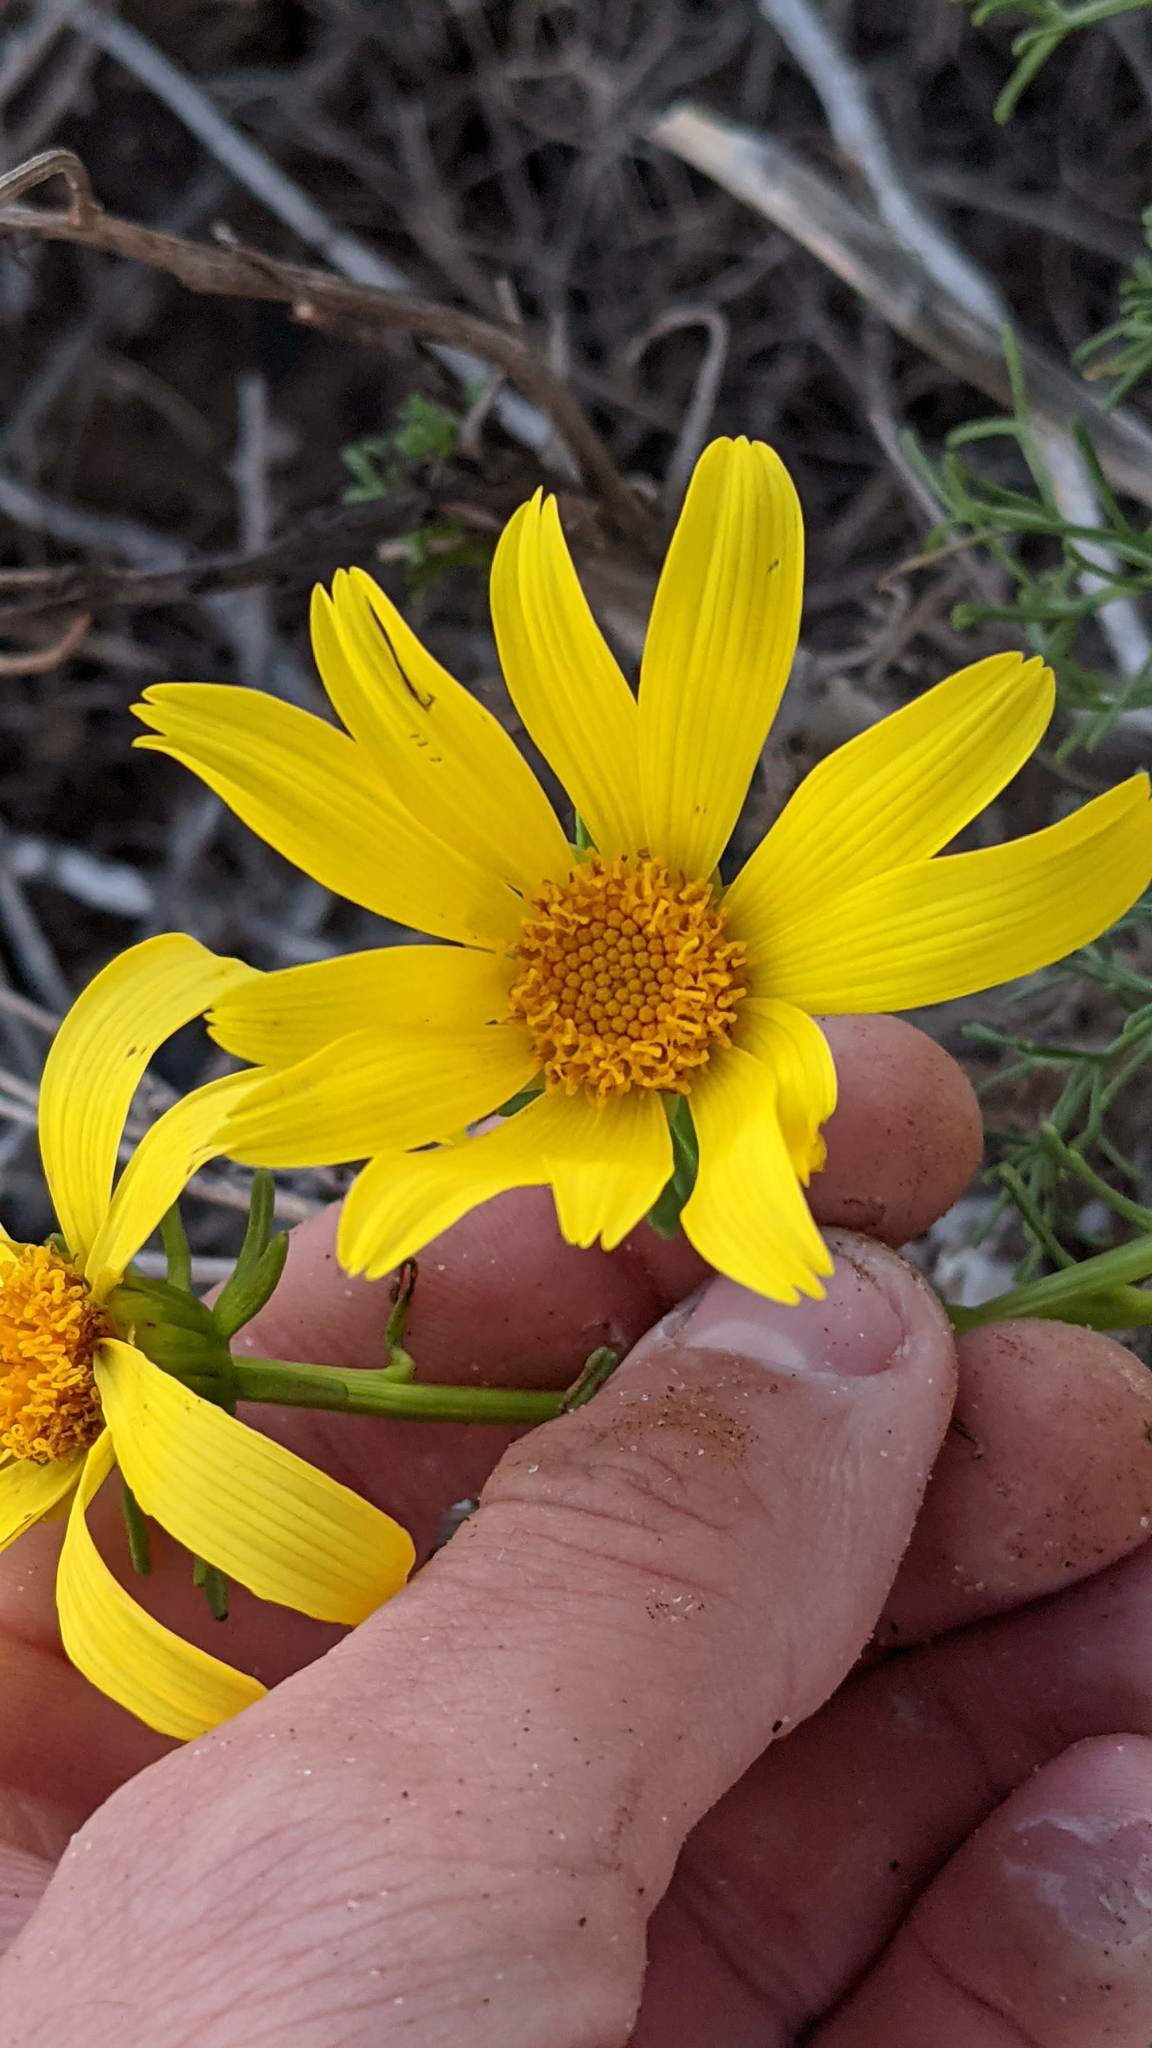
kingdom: Plantae
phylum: Tracheophyta
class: Magnoliopsida
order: Asterales
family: Asteraceae
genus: Coreopsis
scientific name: Coreopsis gigantea
